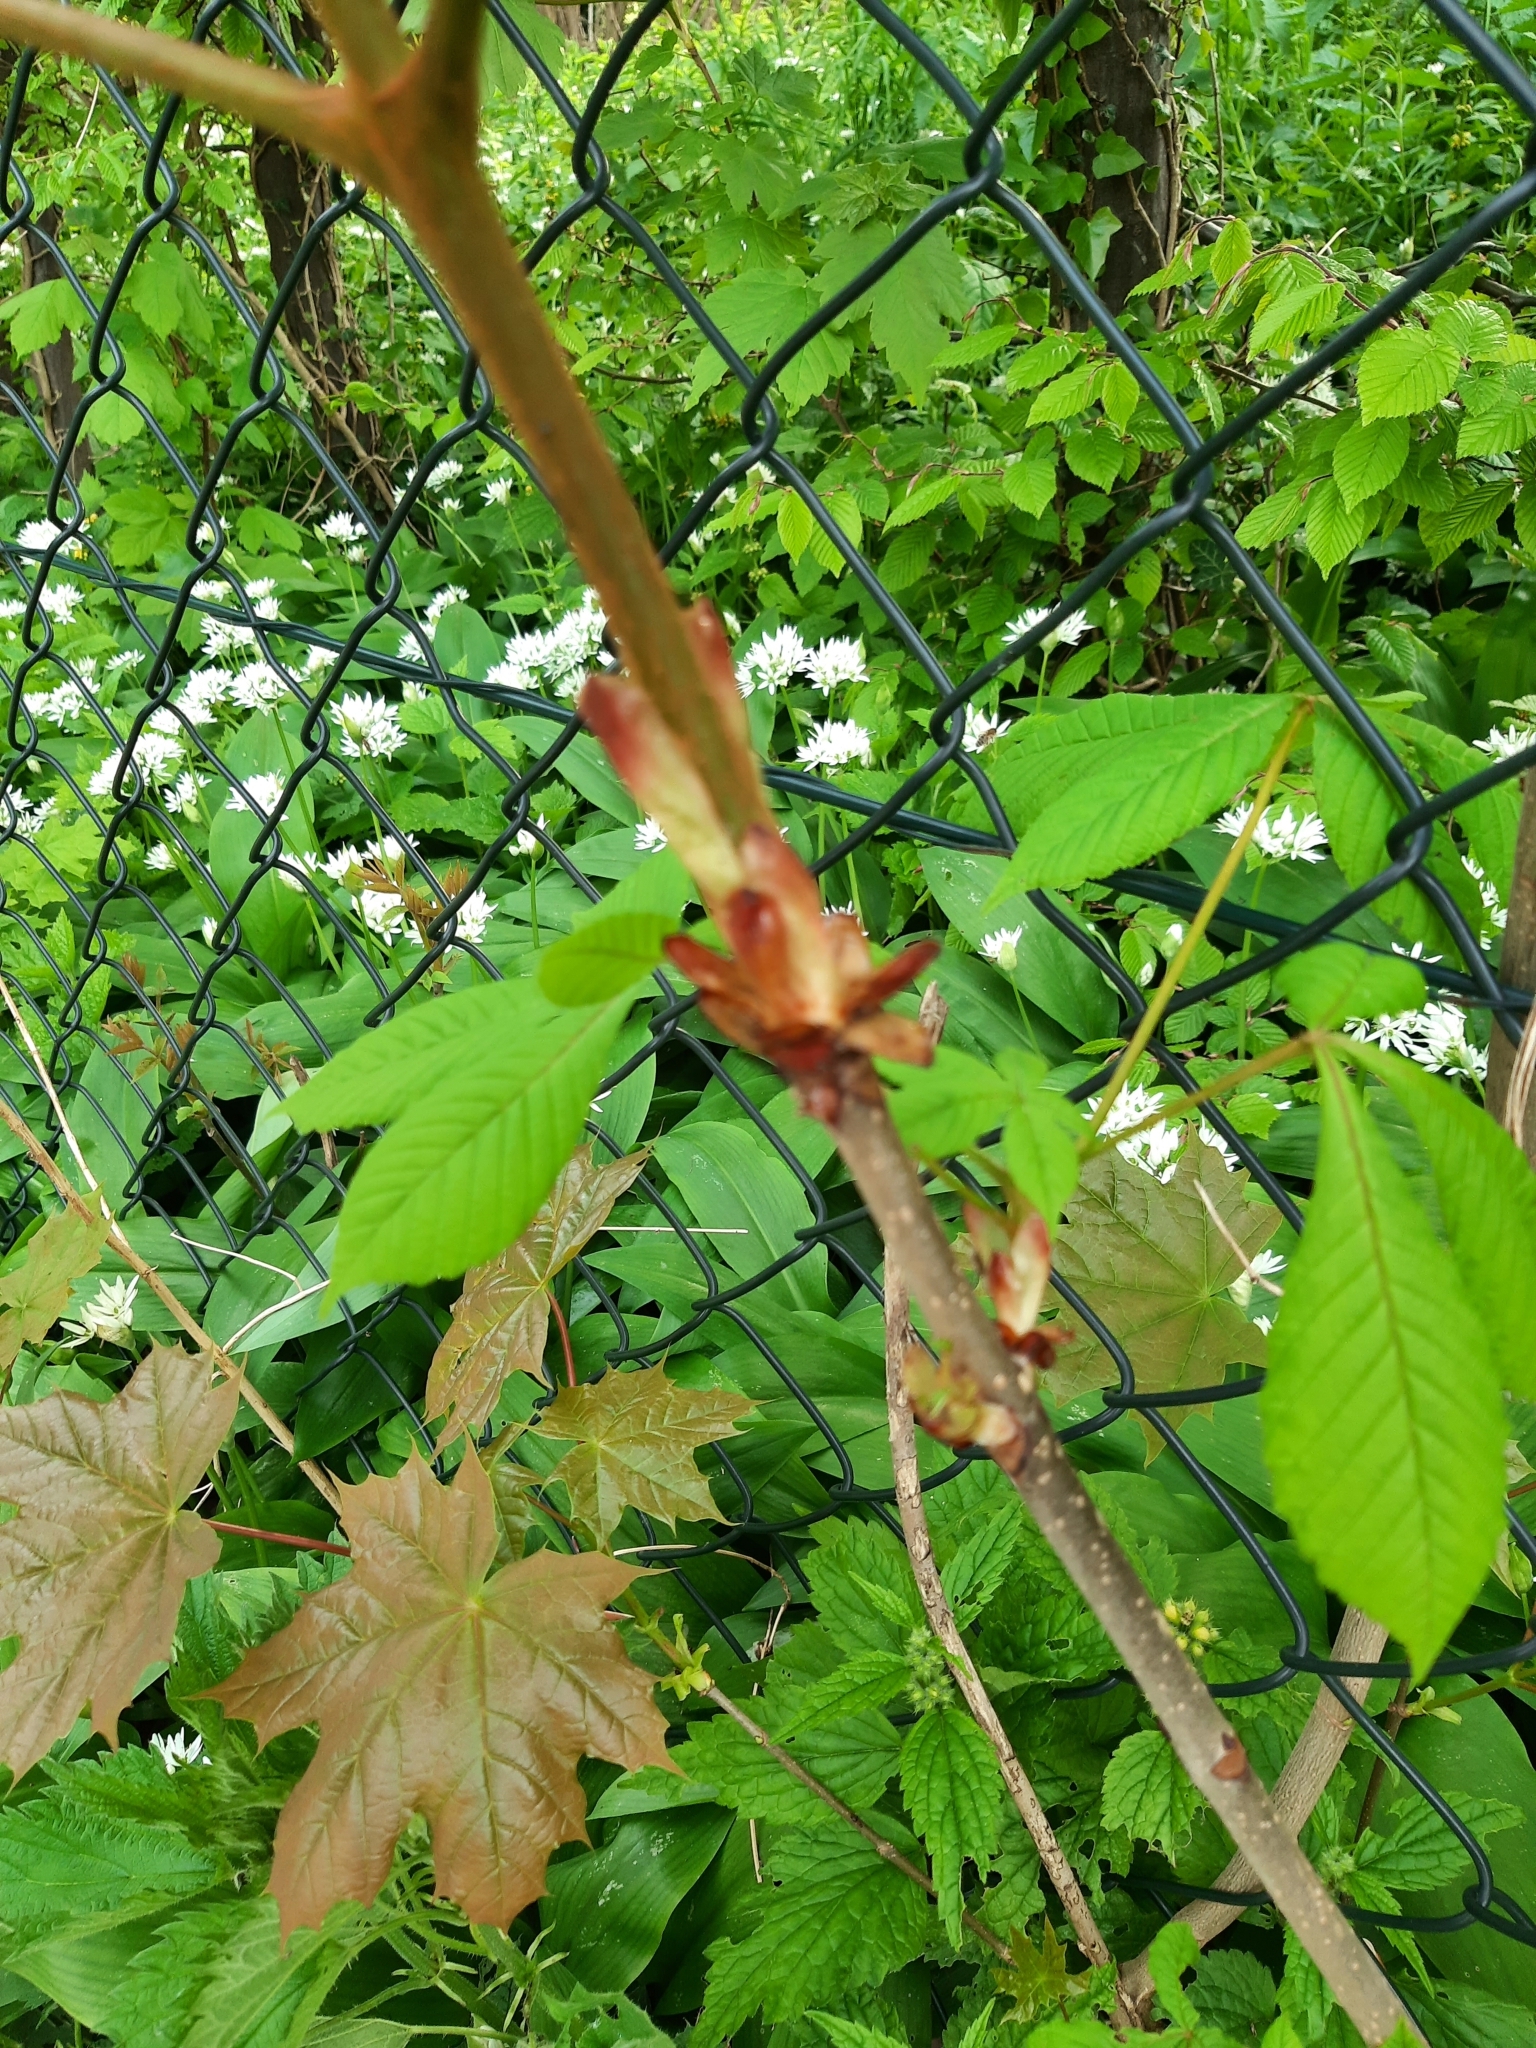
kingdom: Plantae
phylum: Tracheophyta
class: Magnoliopsida
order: Lamiales
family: Oleaceae
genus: Fraxinus
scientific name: Fraxinus excelsior
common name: European ash
